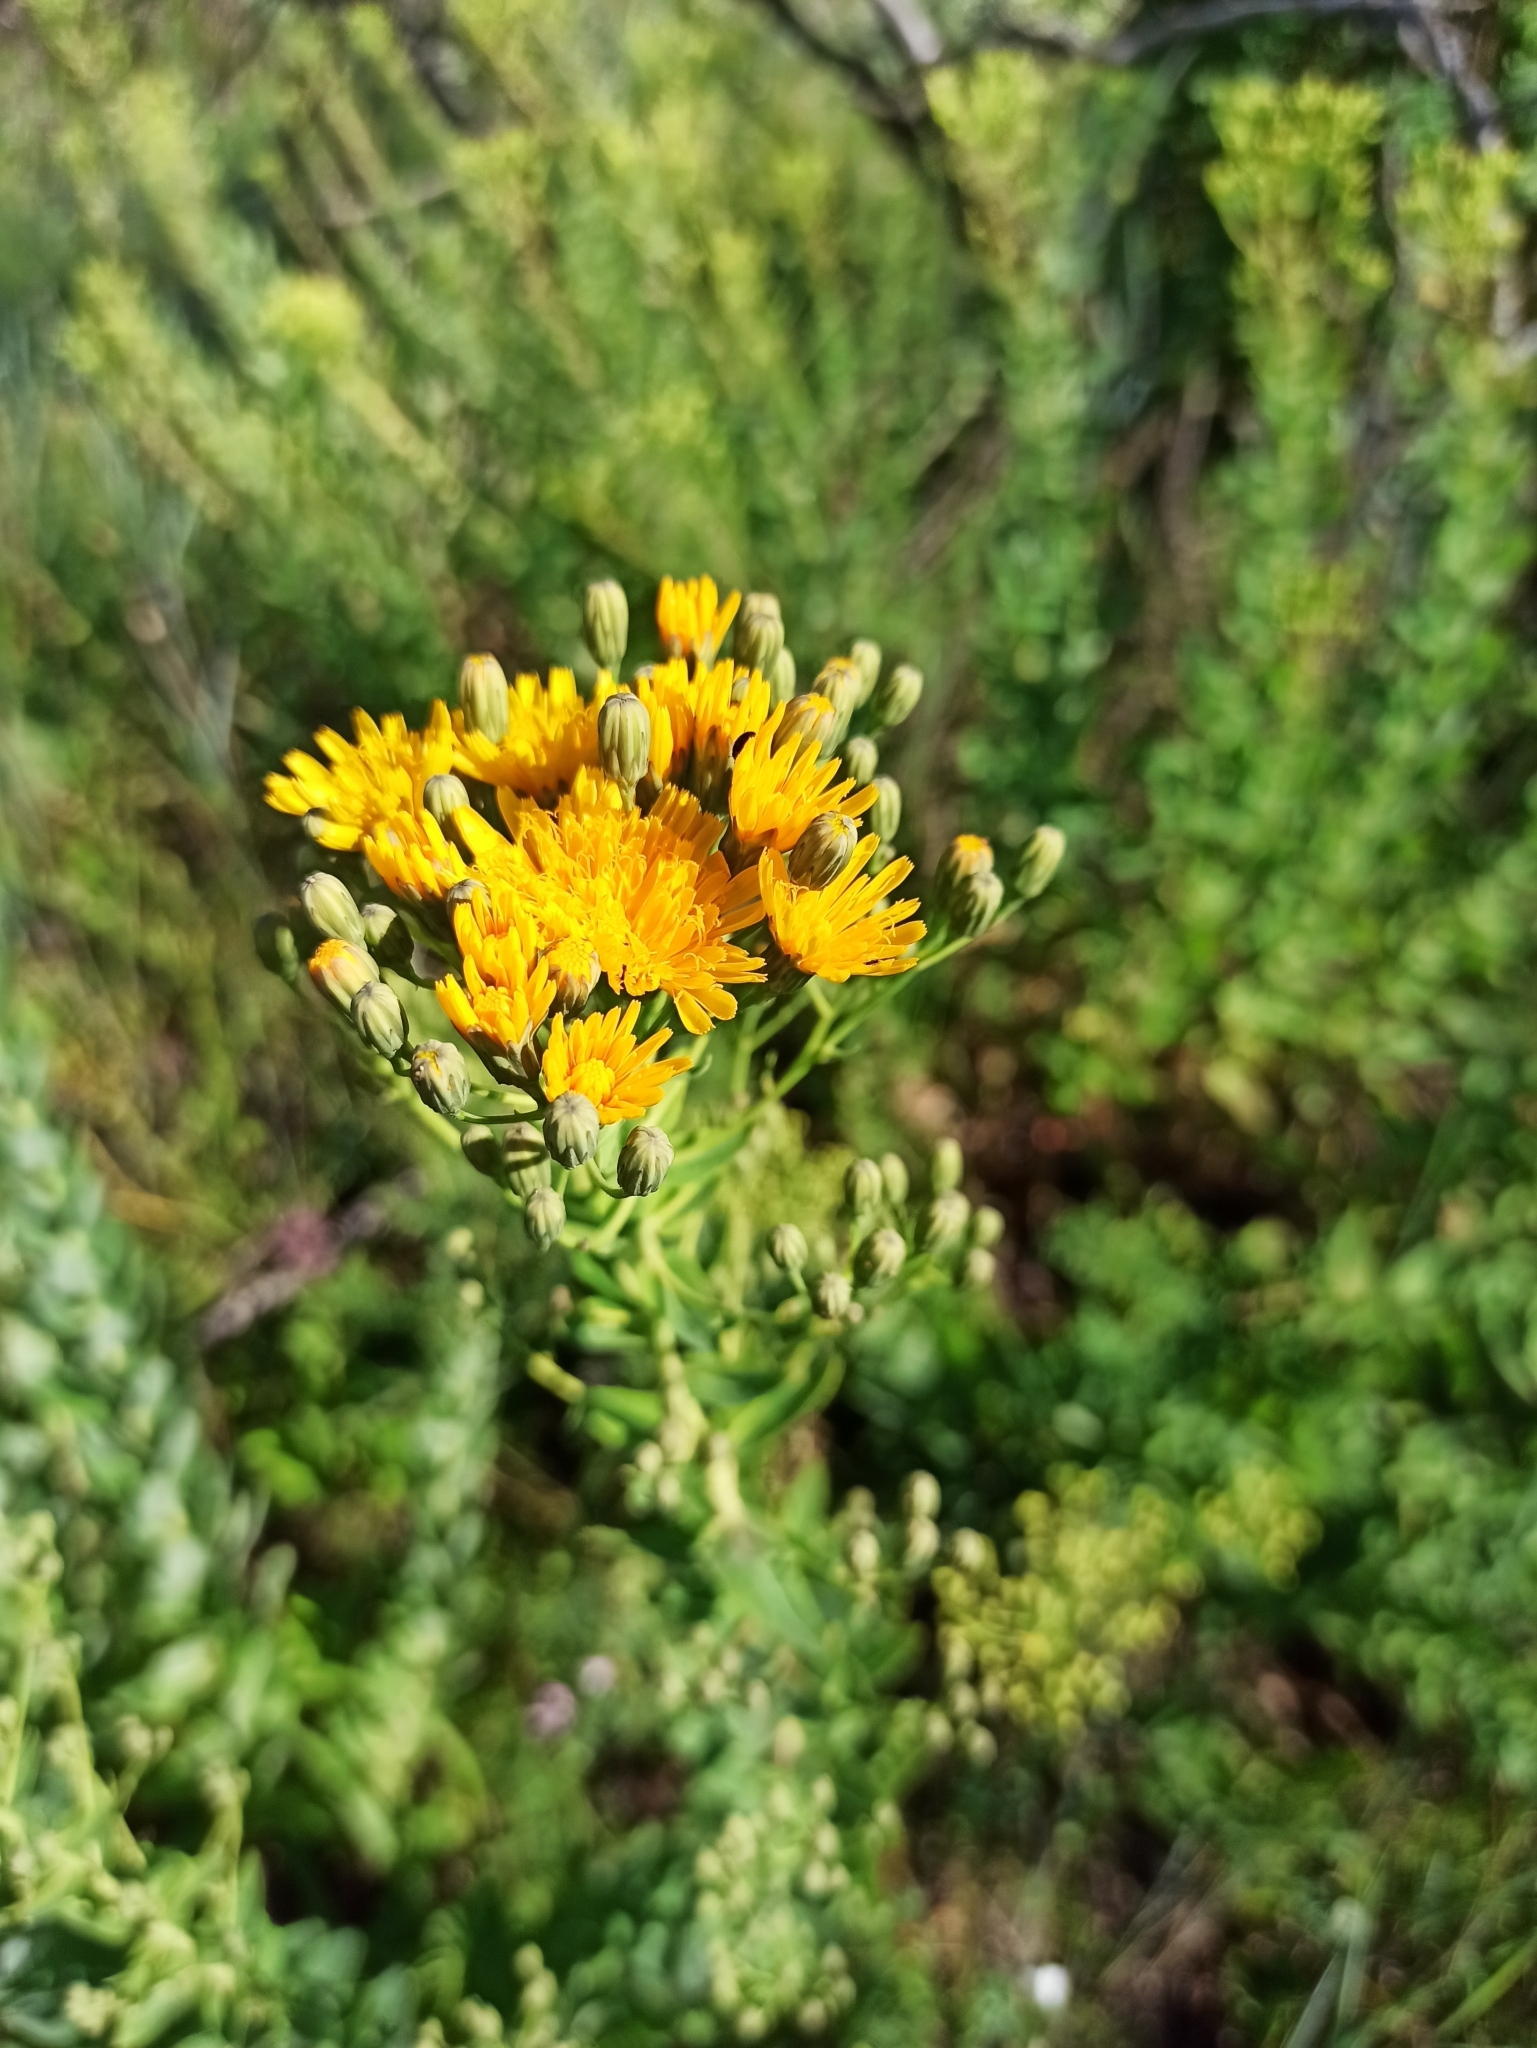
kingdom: Plantae
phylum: Tracheophyta
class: Magnoliopsida
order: Asterales
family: Asteraceae
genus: Hieracium
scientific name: Hieracium virosum
